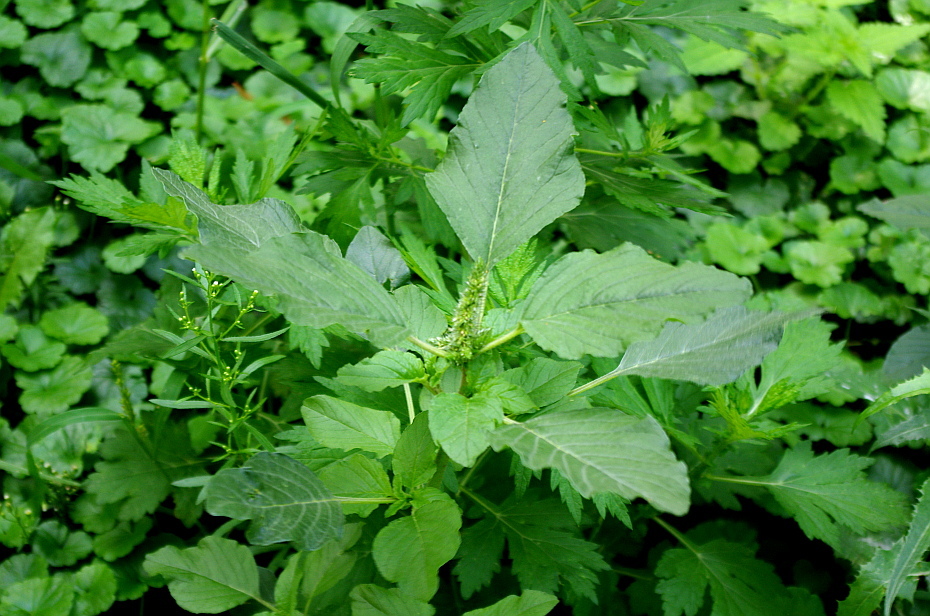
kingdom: Plantae
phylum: Tracheophyta
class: Magnoliopsida
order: Caryophyllales
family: Amaranthaceae
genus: Amaranthus
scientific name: Amaranthus retroflexus
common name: Redroot amaranth
